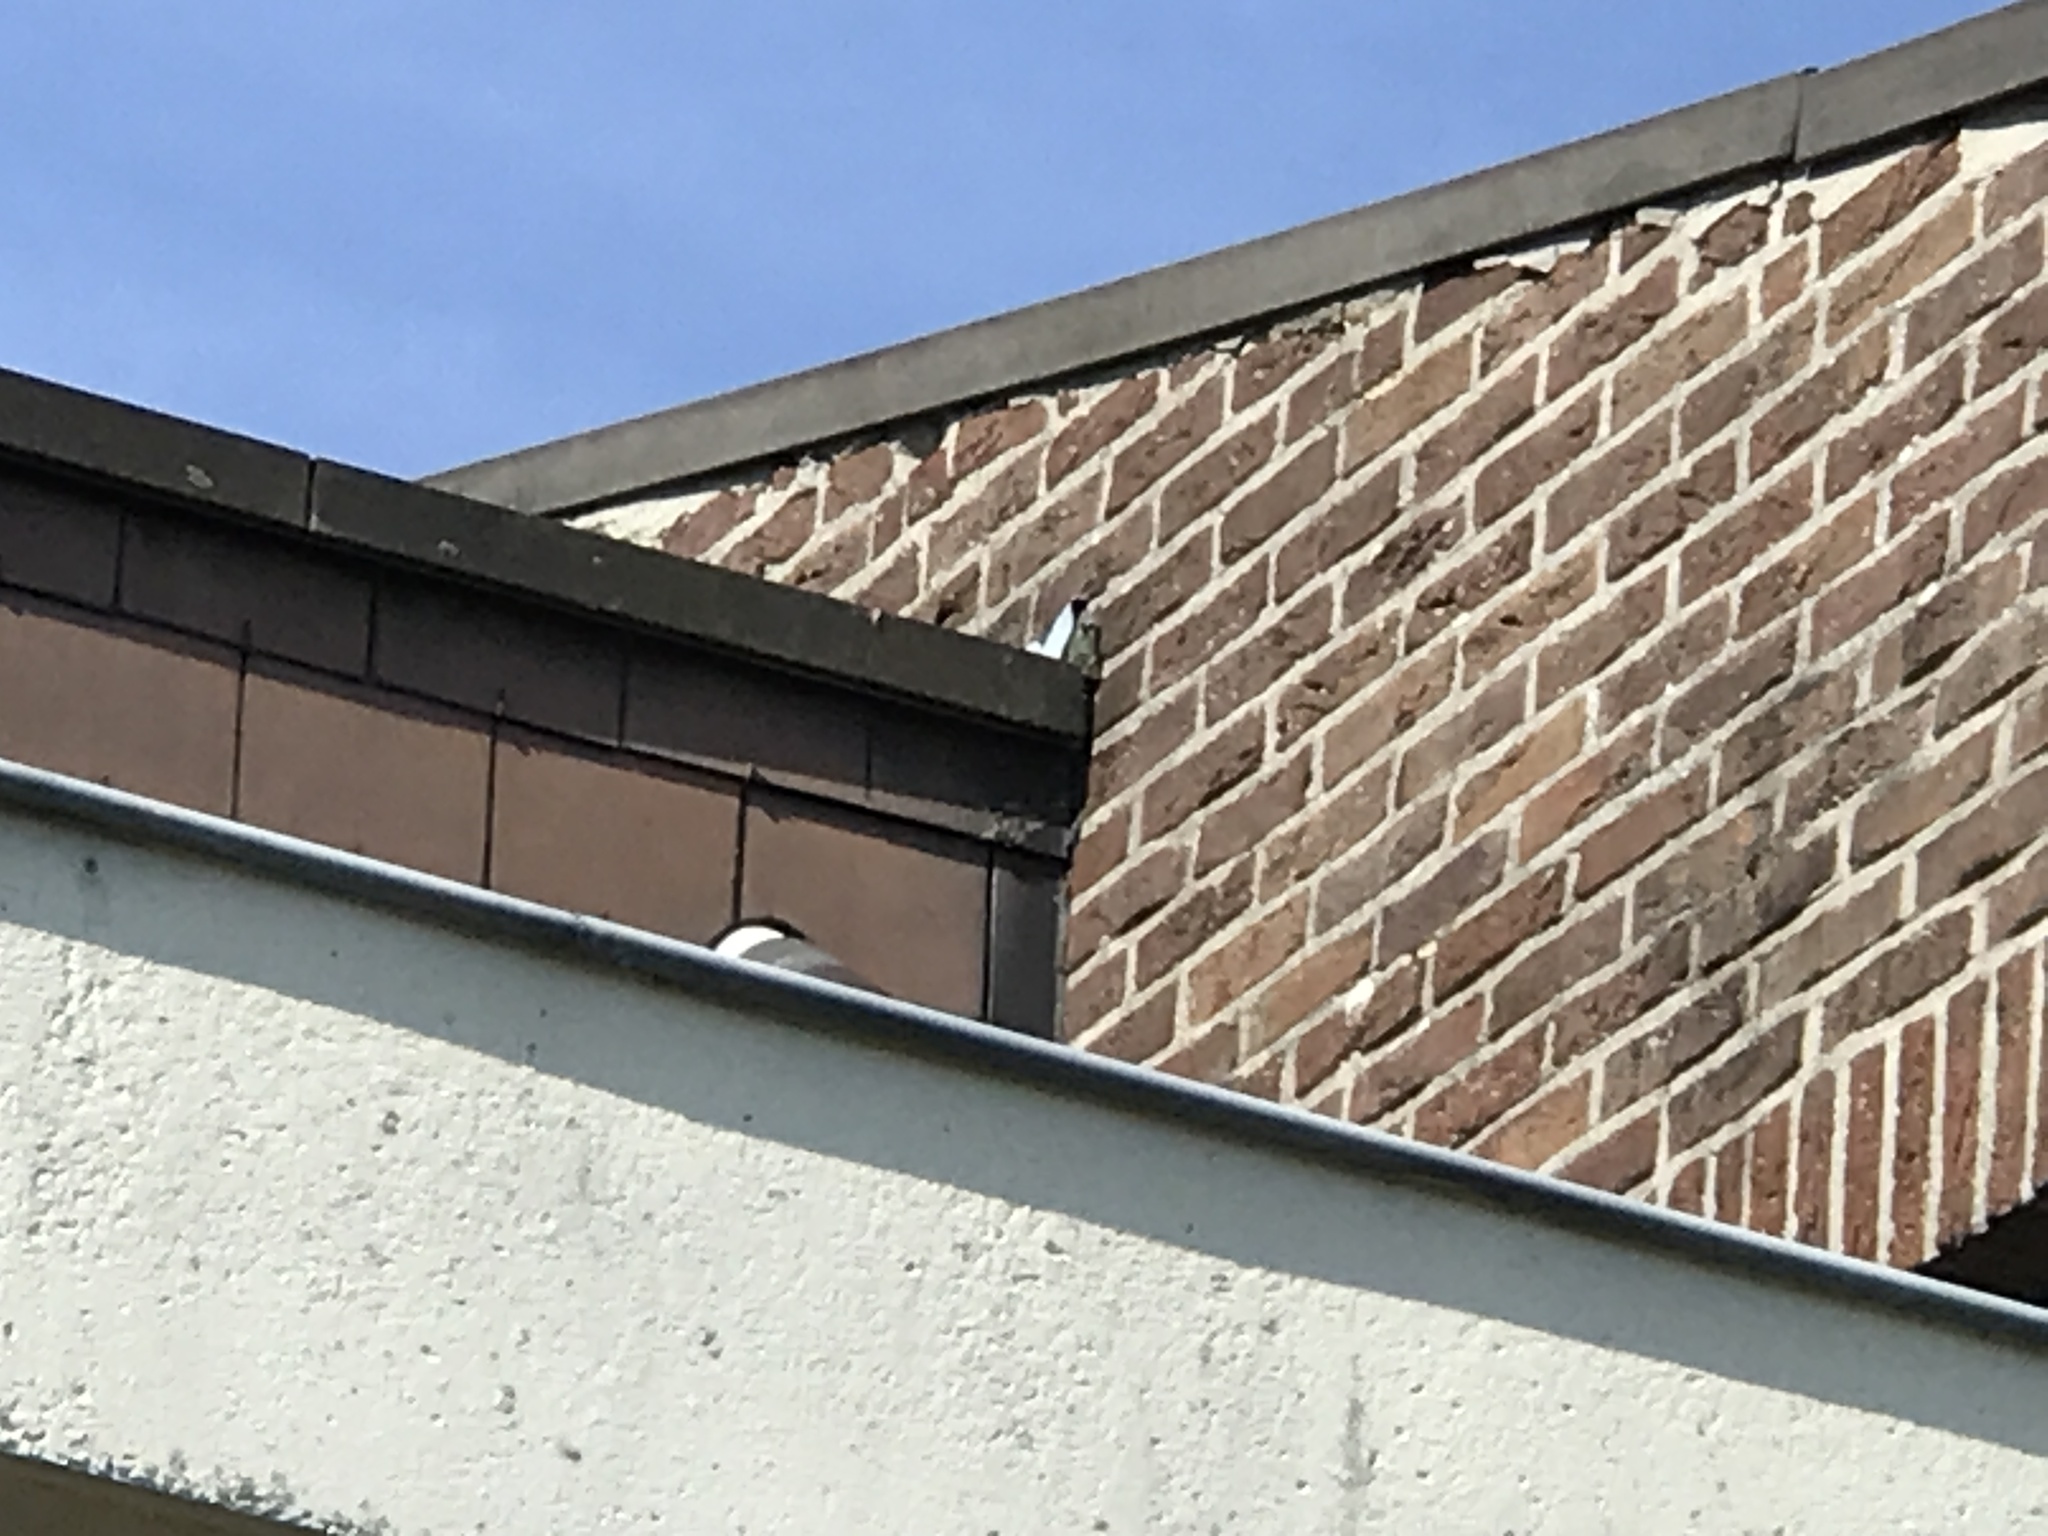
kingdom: Animalia
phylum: Arthropoda
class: Insecta
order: Hymenoptera
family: Vespidae
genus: Vespa
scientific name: Vespa crabro
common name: Hornet
